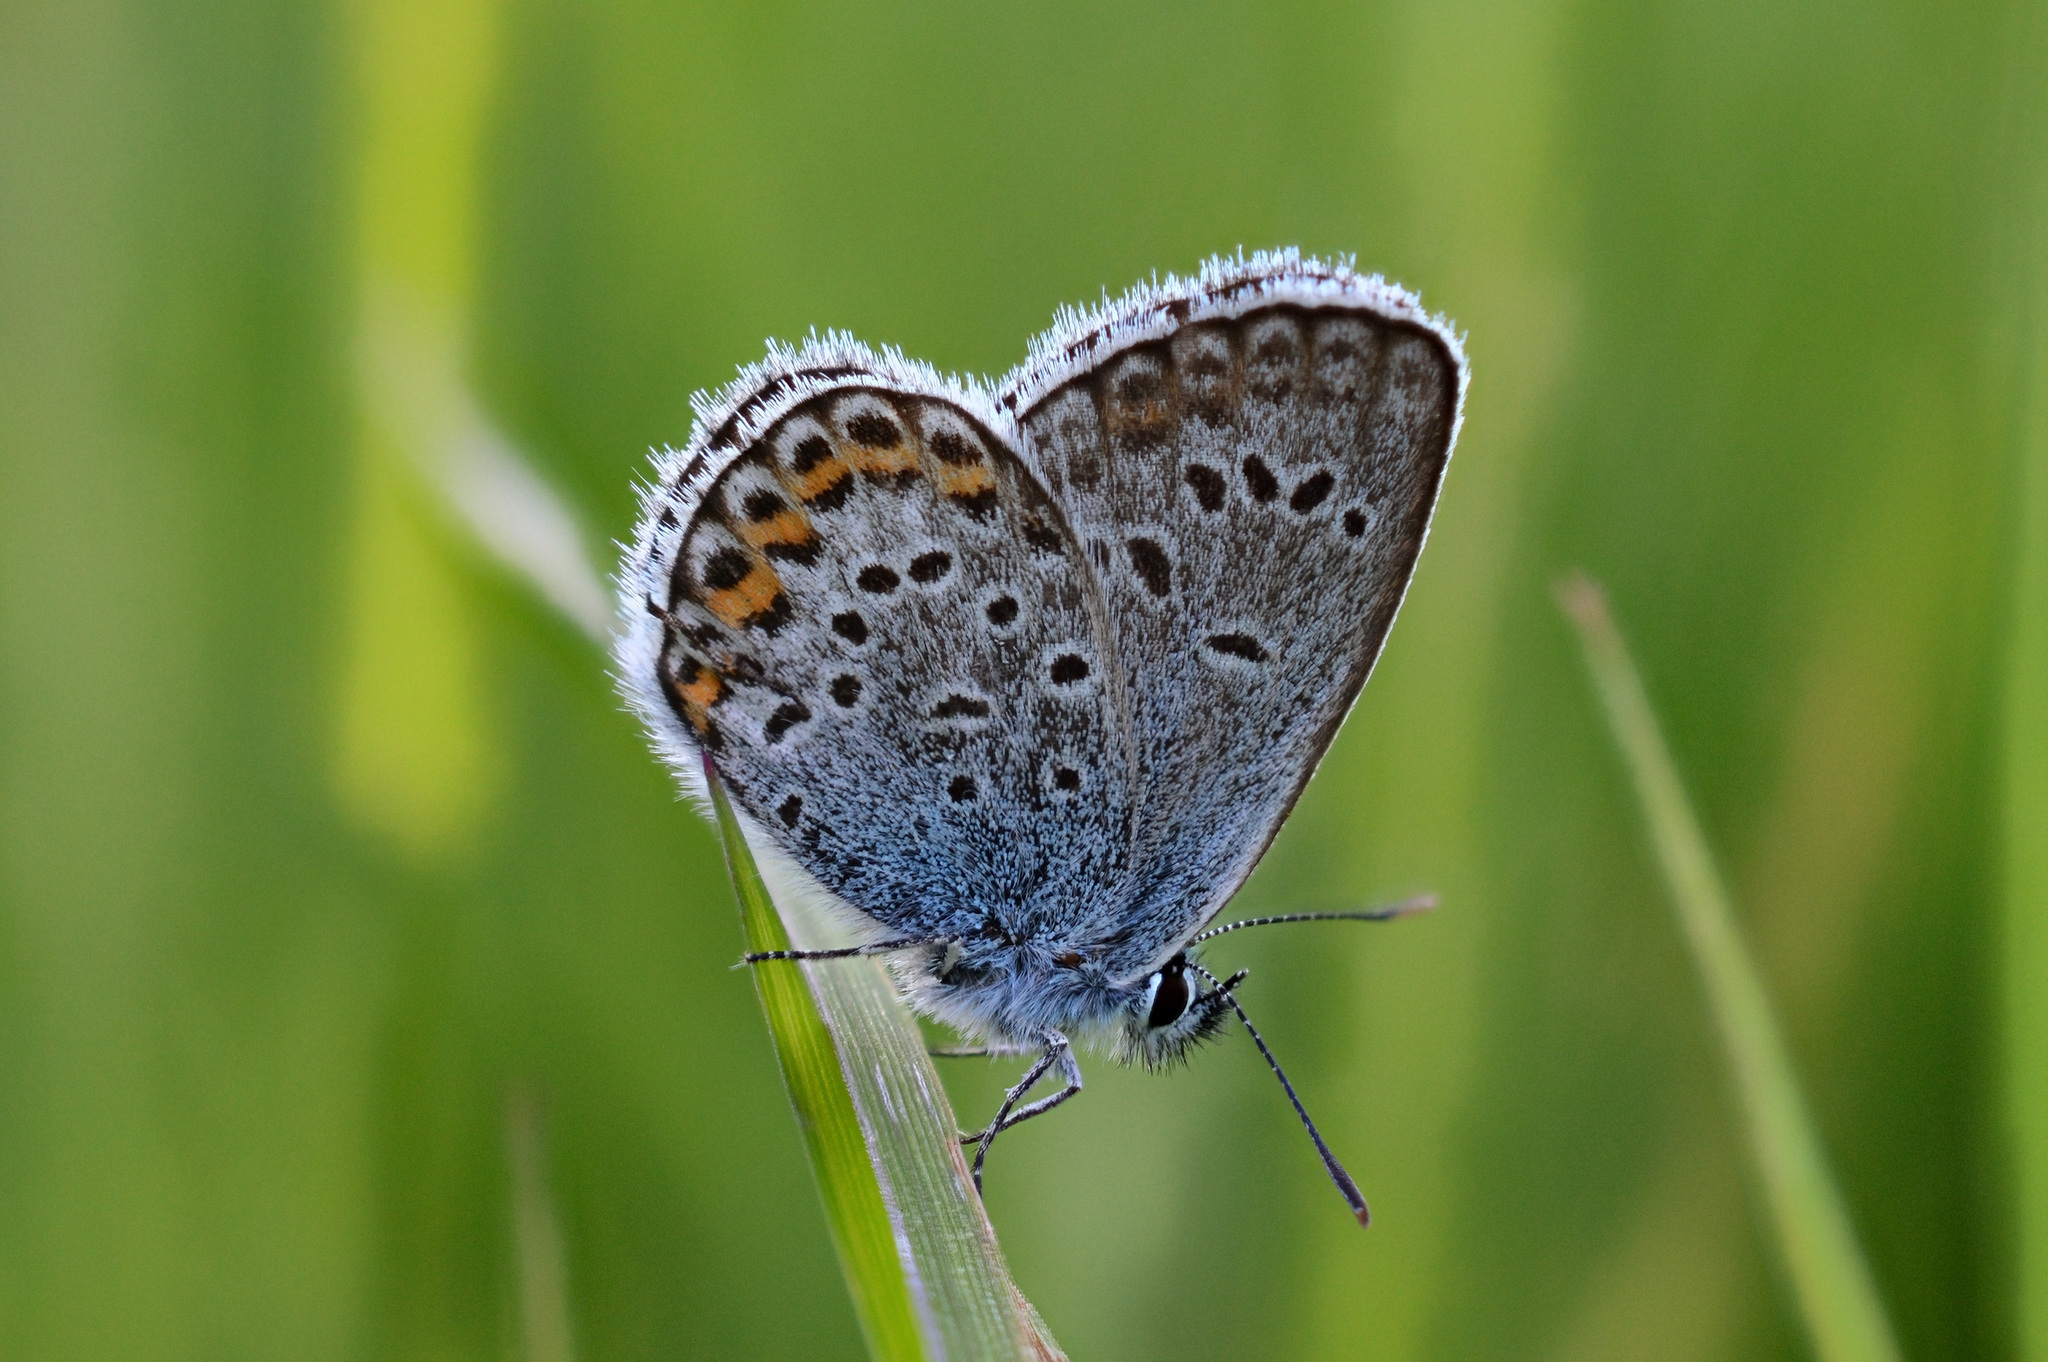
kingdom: Animalia
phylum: Arthropoda
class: Insecta
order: Lepidoptera
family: Lycaenidae
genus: Plebejus
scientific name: Plebejus argus
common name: Silver-studded blue
